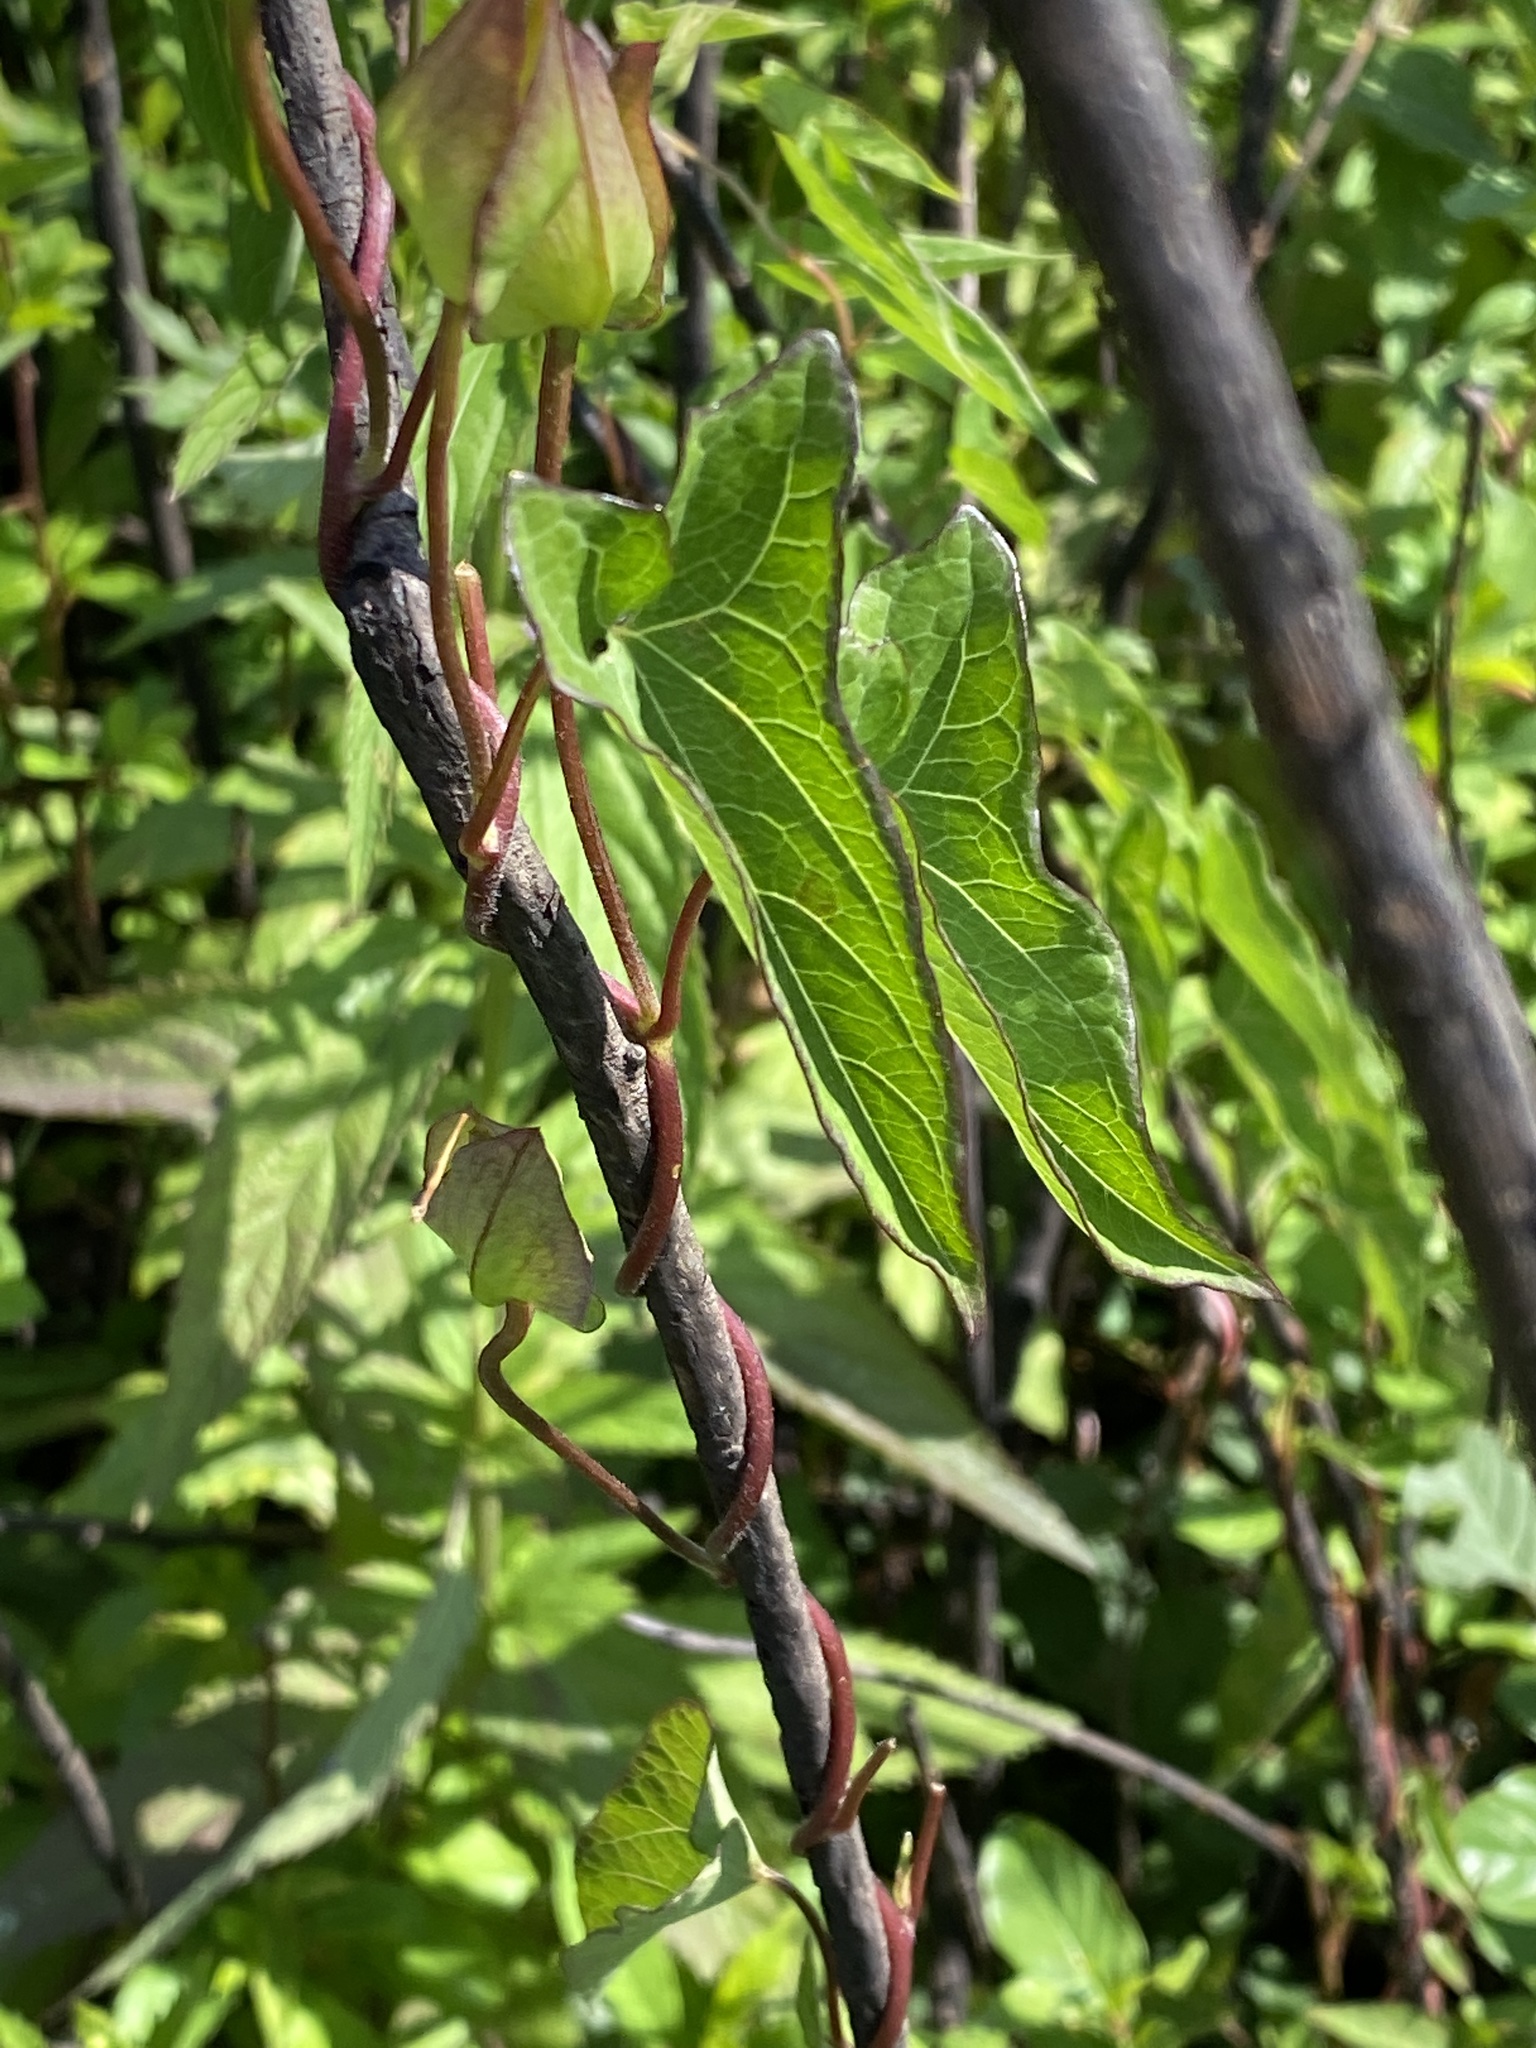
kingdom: Plantae
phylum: Tracheophyta
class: Magnoliopsida
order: Solanales
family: Convolvulaceae
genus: Calystegia
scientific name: Calystegia sepium
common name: Hedge bindweed
